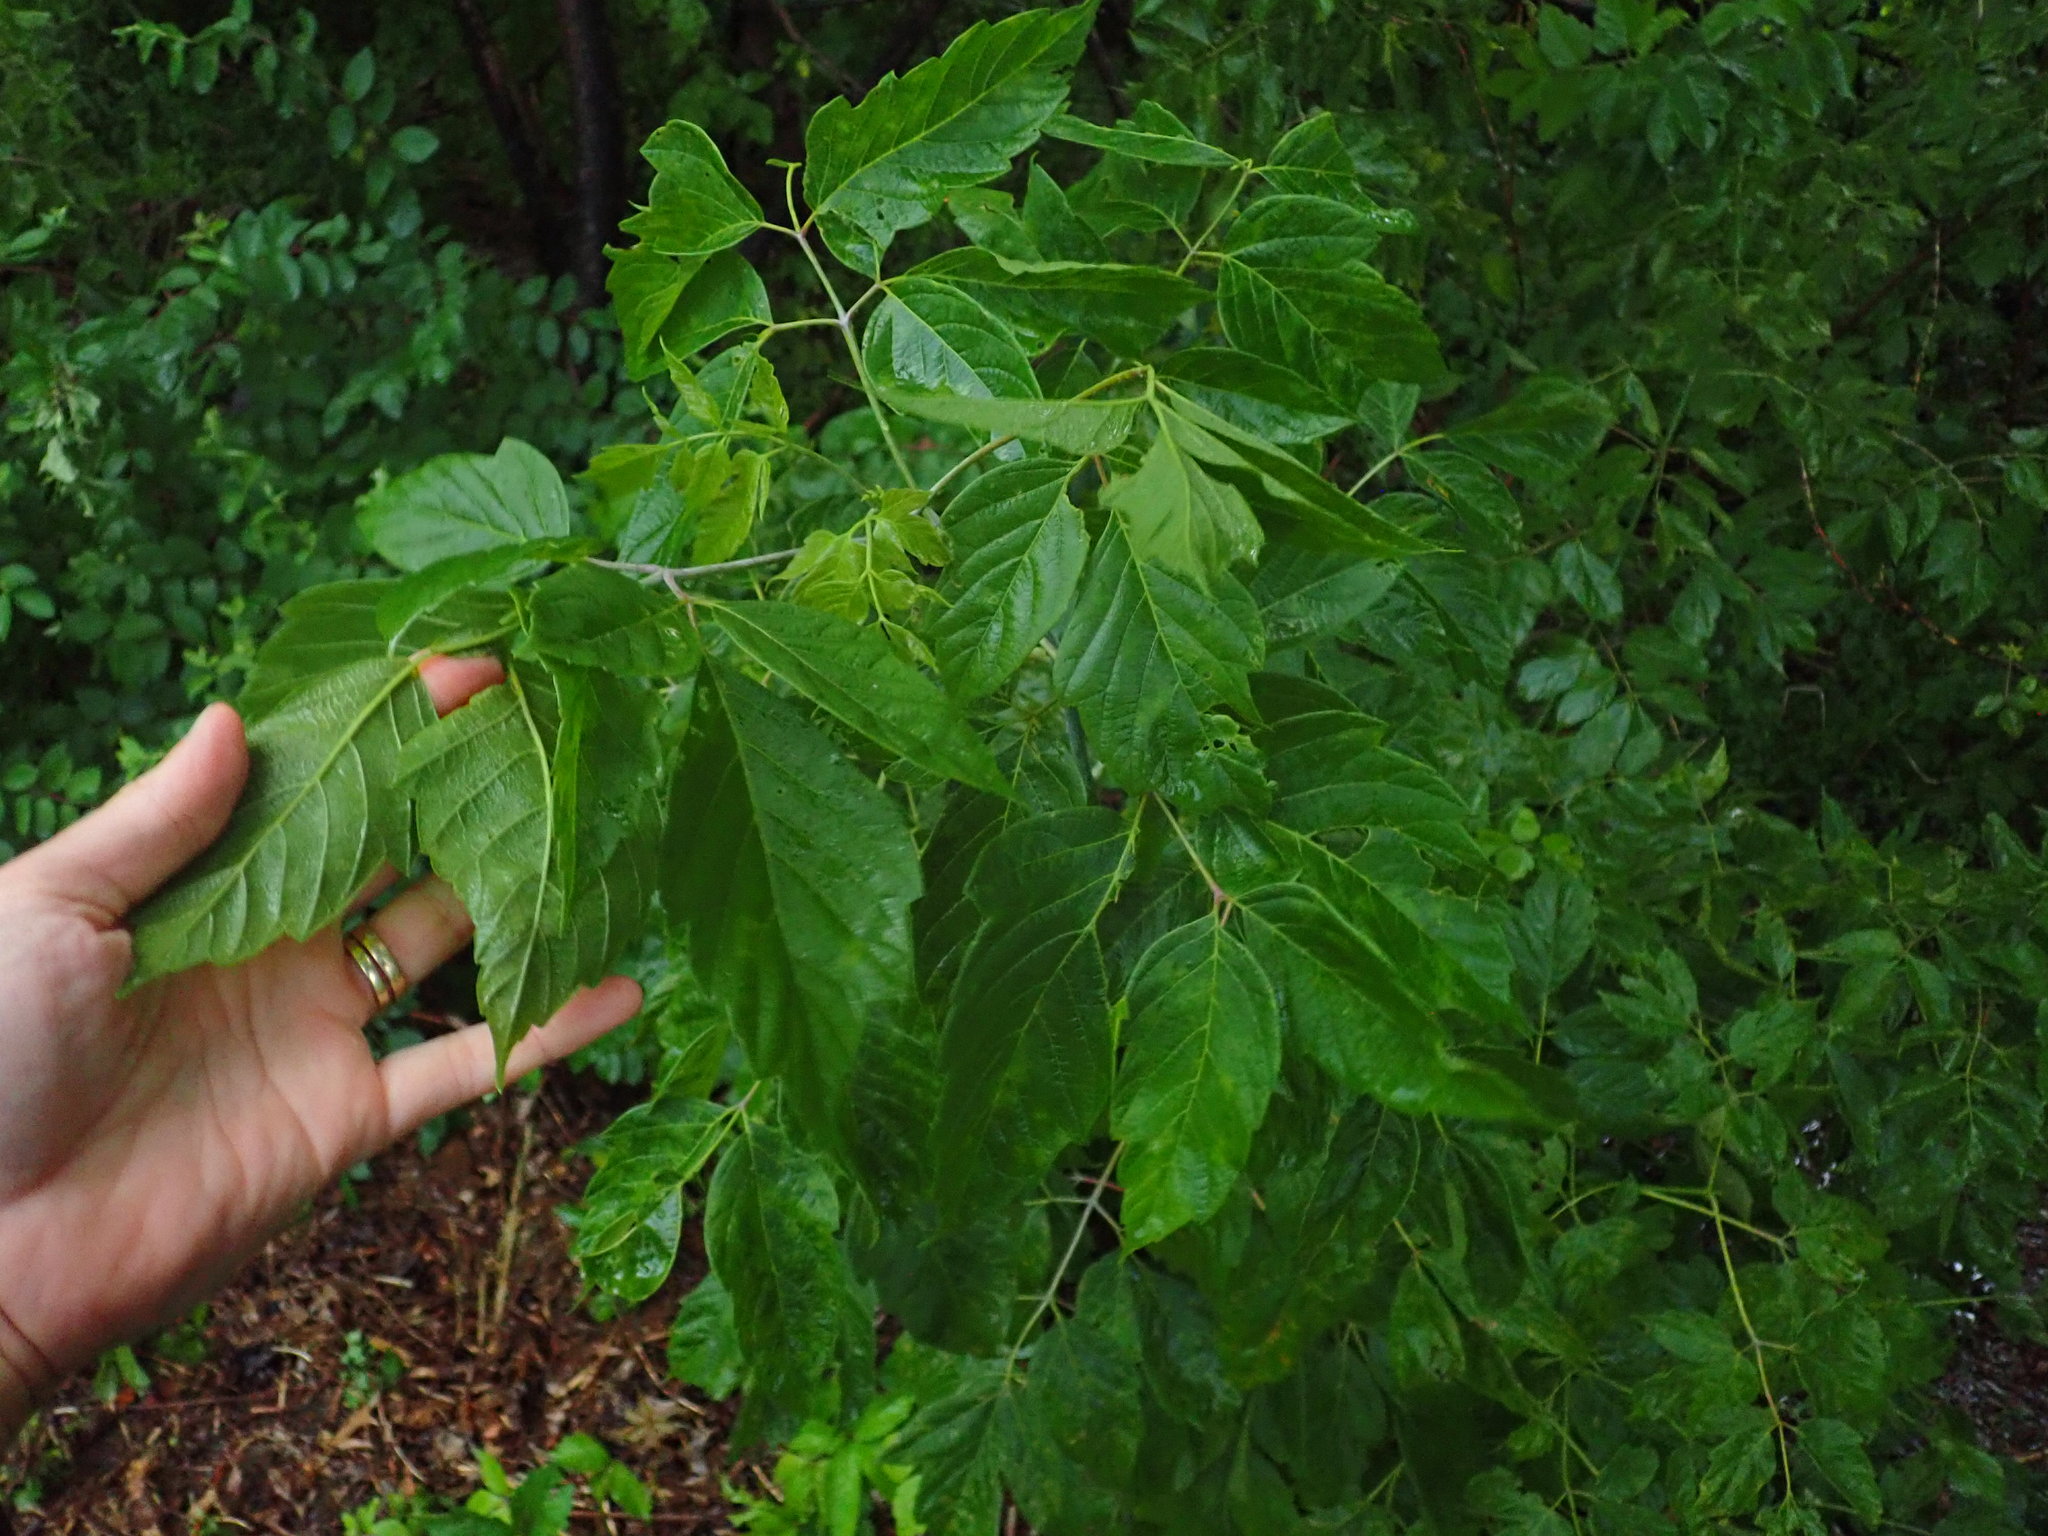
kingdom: Plantae
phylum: Tracheophyta
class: Magnoliopsida
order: Sapindales
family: Sapindaceae
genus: Acer
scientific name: Acer negundo
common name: Ashleaf maple
